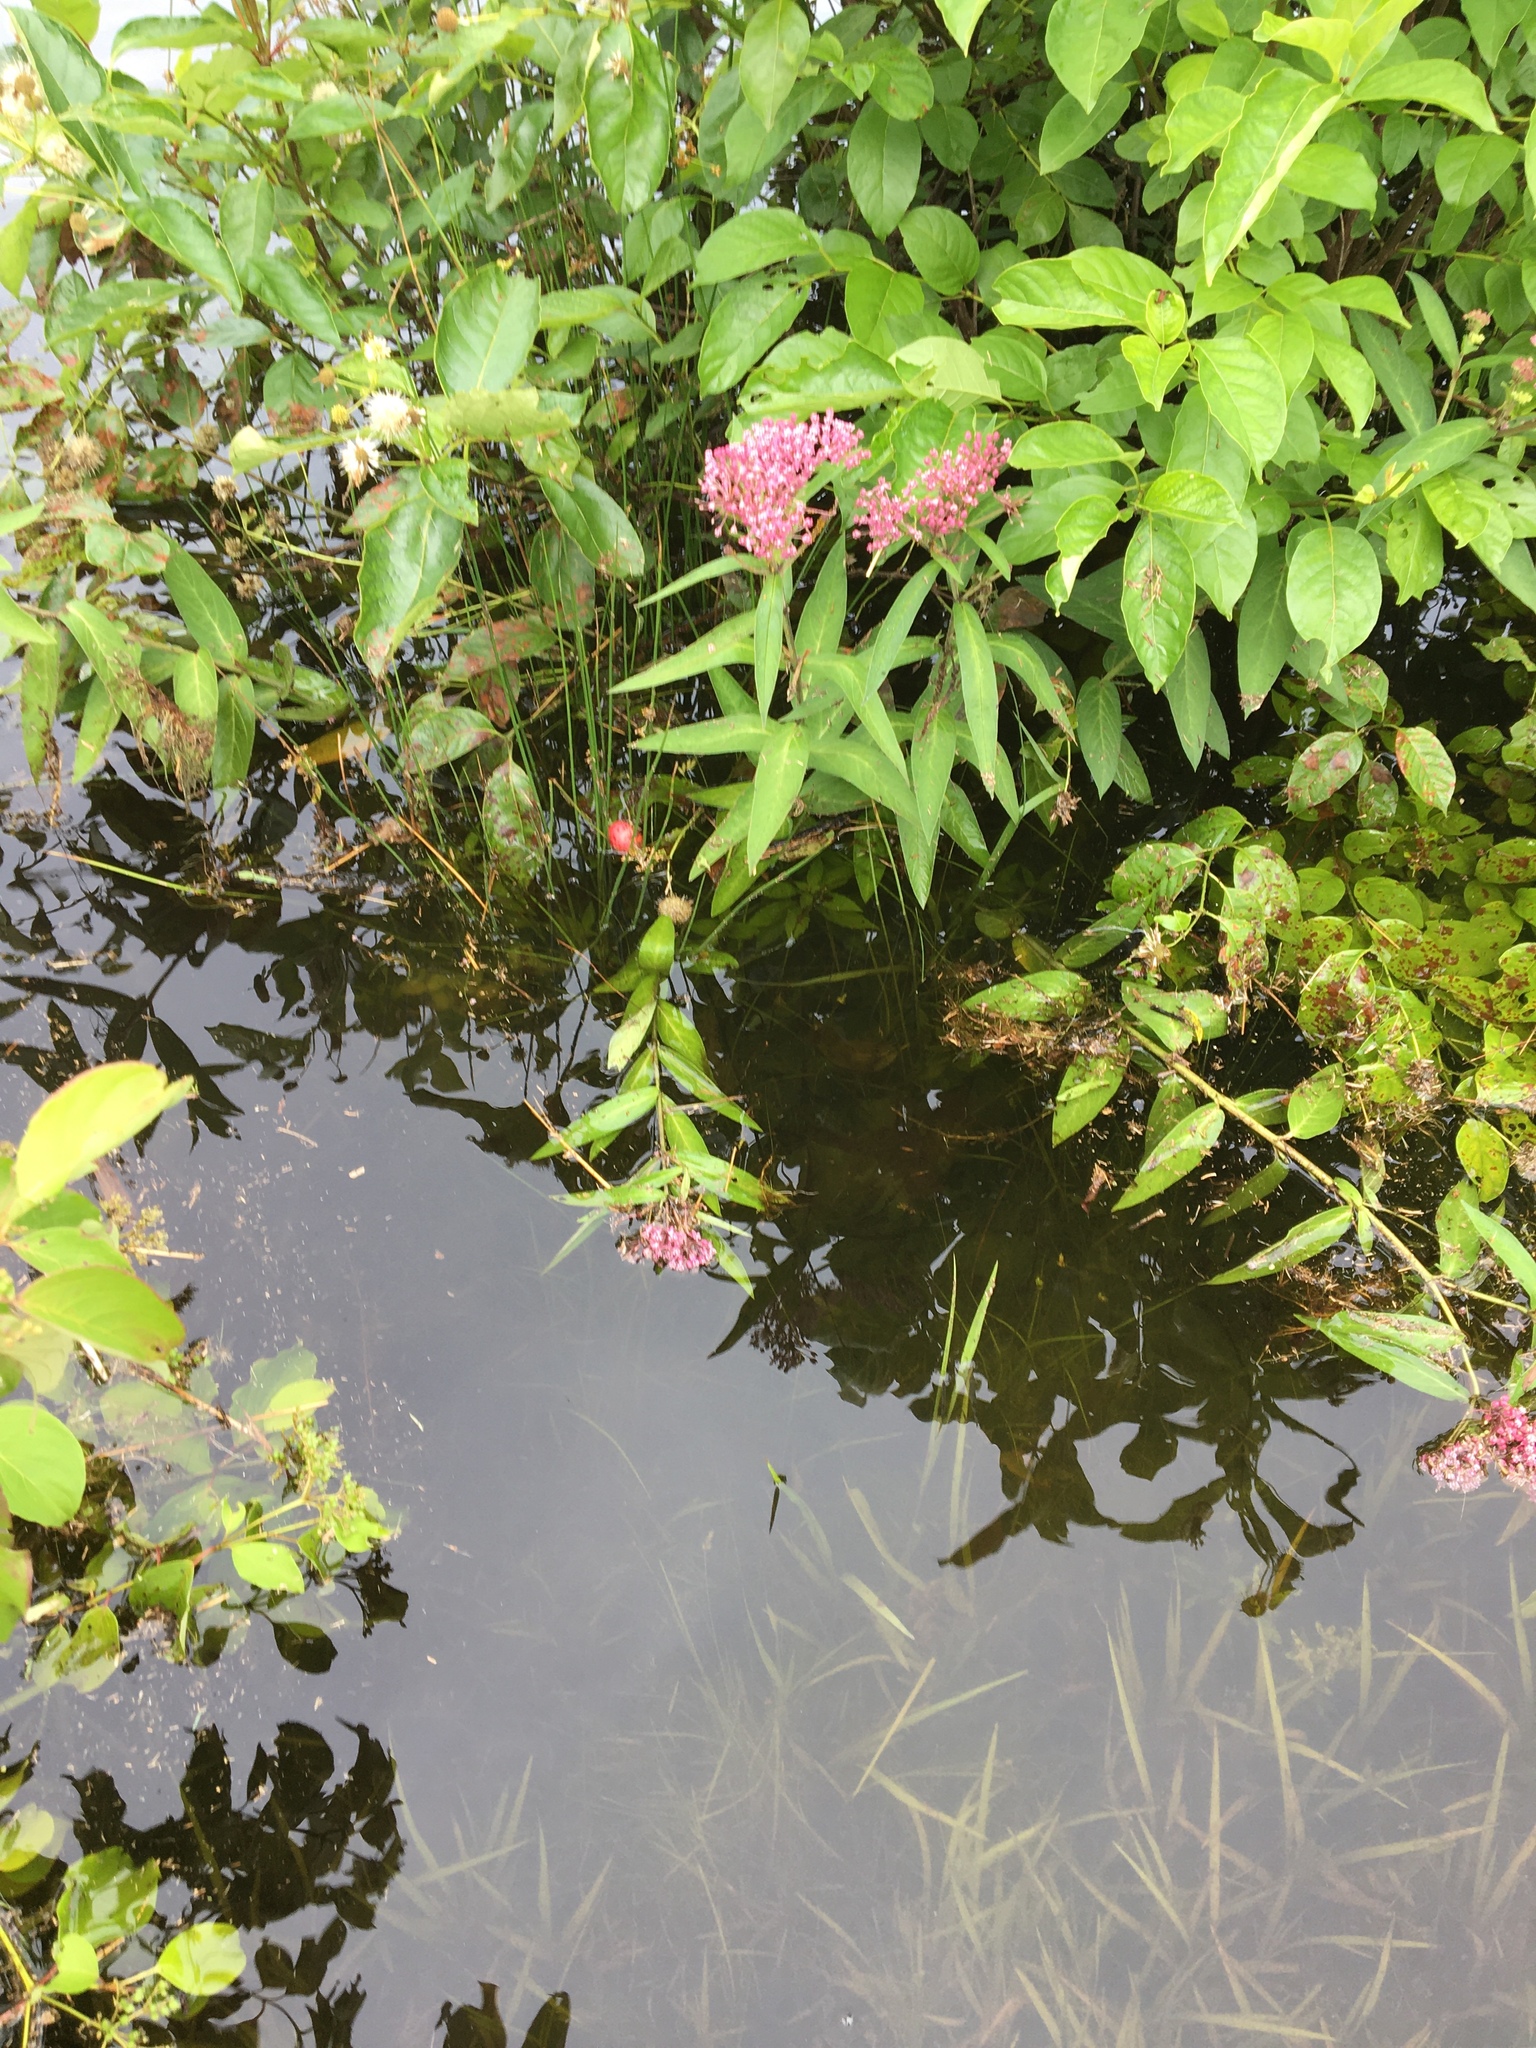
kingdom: Plantae
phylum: Tracheophyta
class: Magnoliopsida
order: Gentianales
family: Apocynaceae
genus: Asclepias
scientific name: Asclepias incarnata
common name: Swamp milkweed
